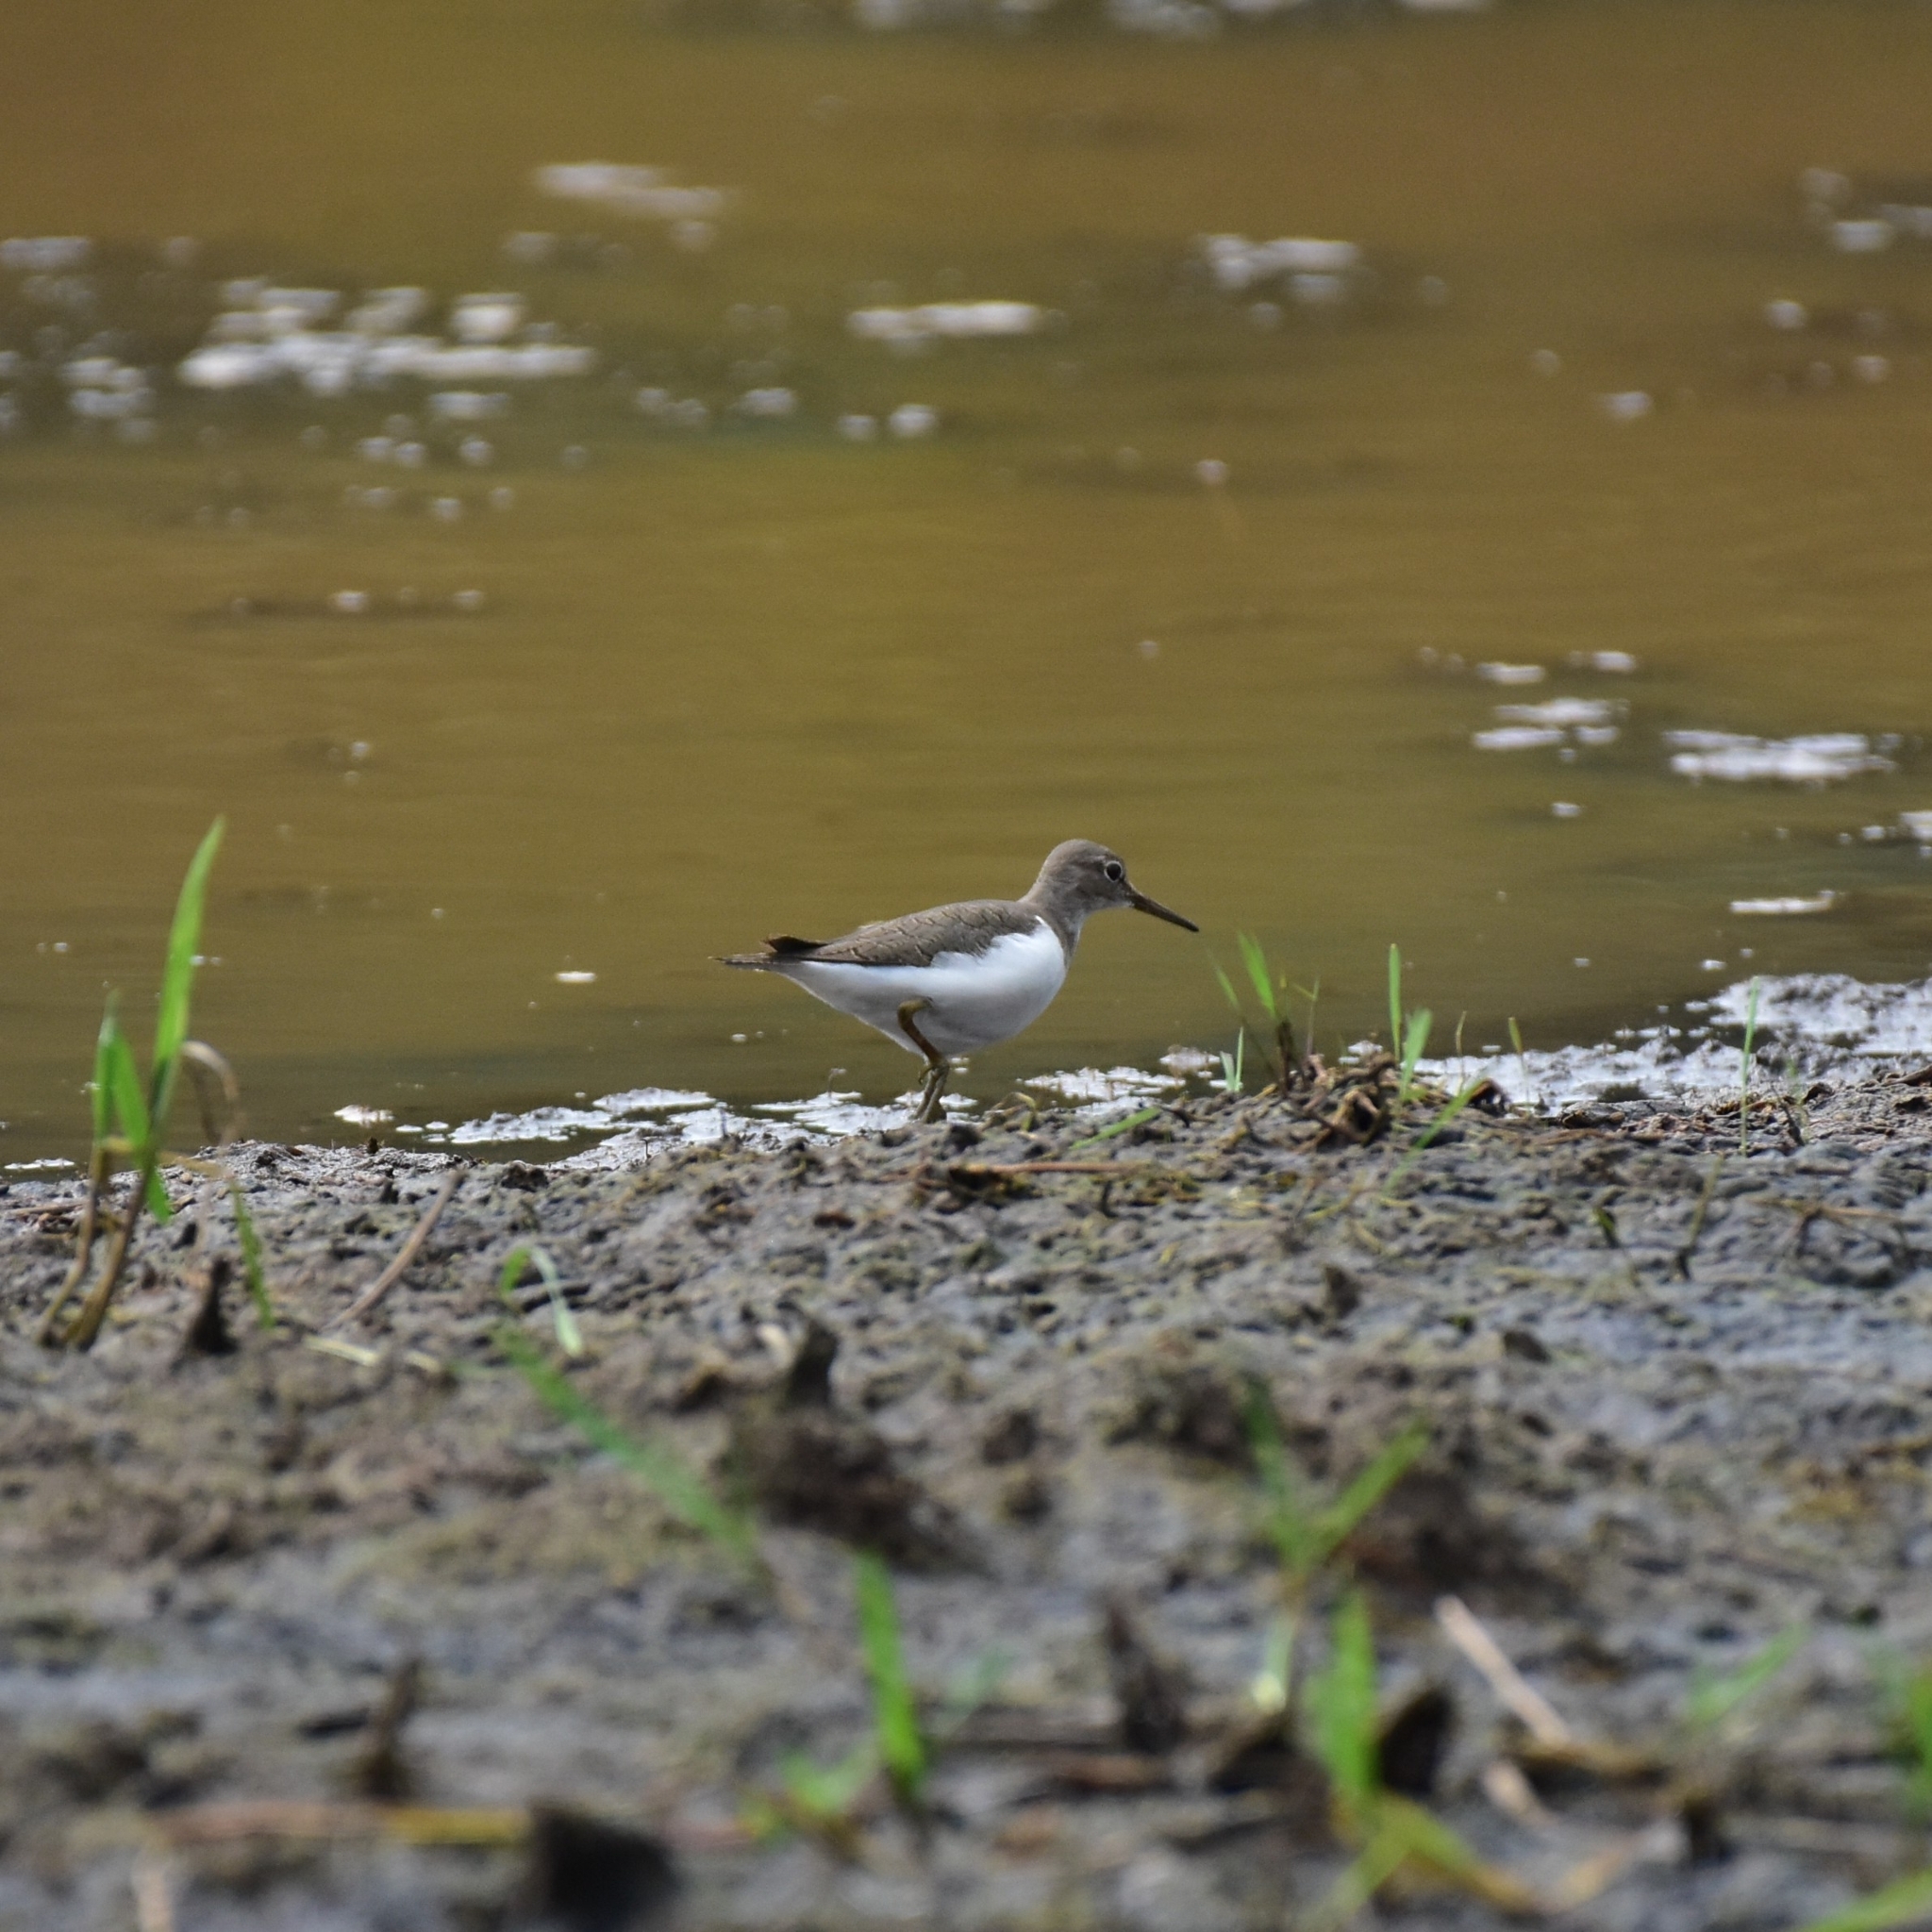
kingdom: Animalia
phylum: Chordata
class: Aves
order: Charadriiformes
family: Scolopacidae
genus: Actitis
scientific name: Actitis hypoleucos
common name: Common sandpiper
